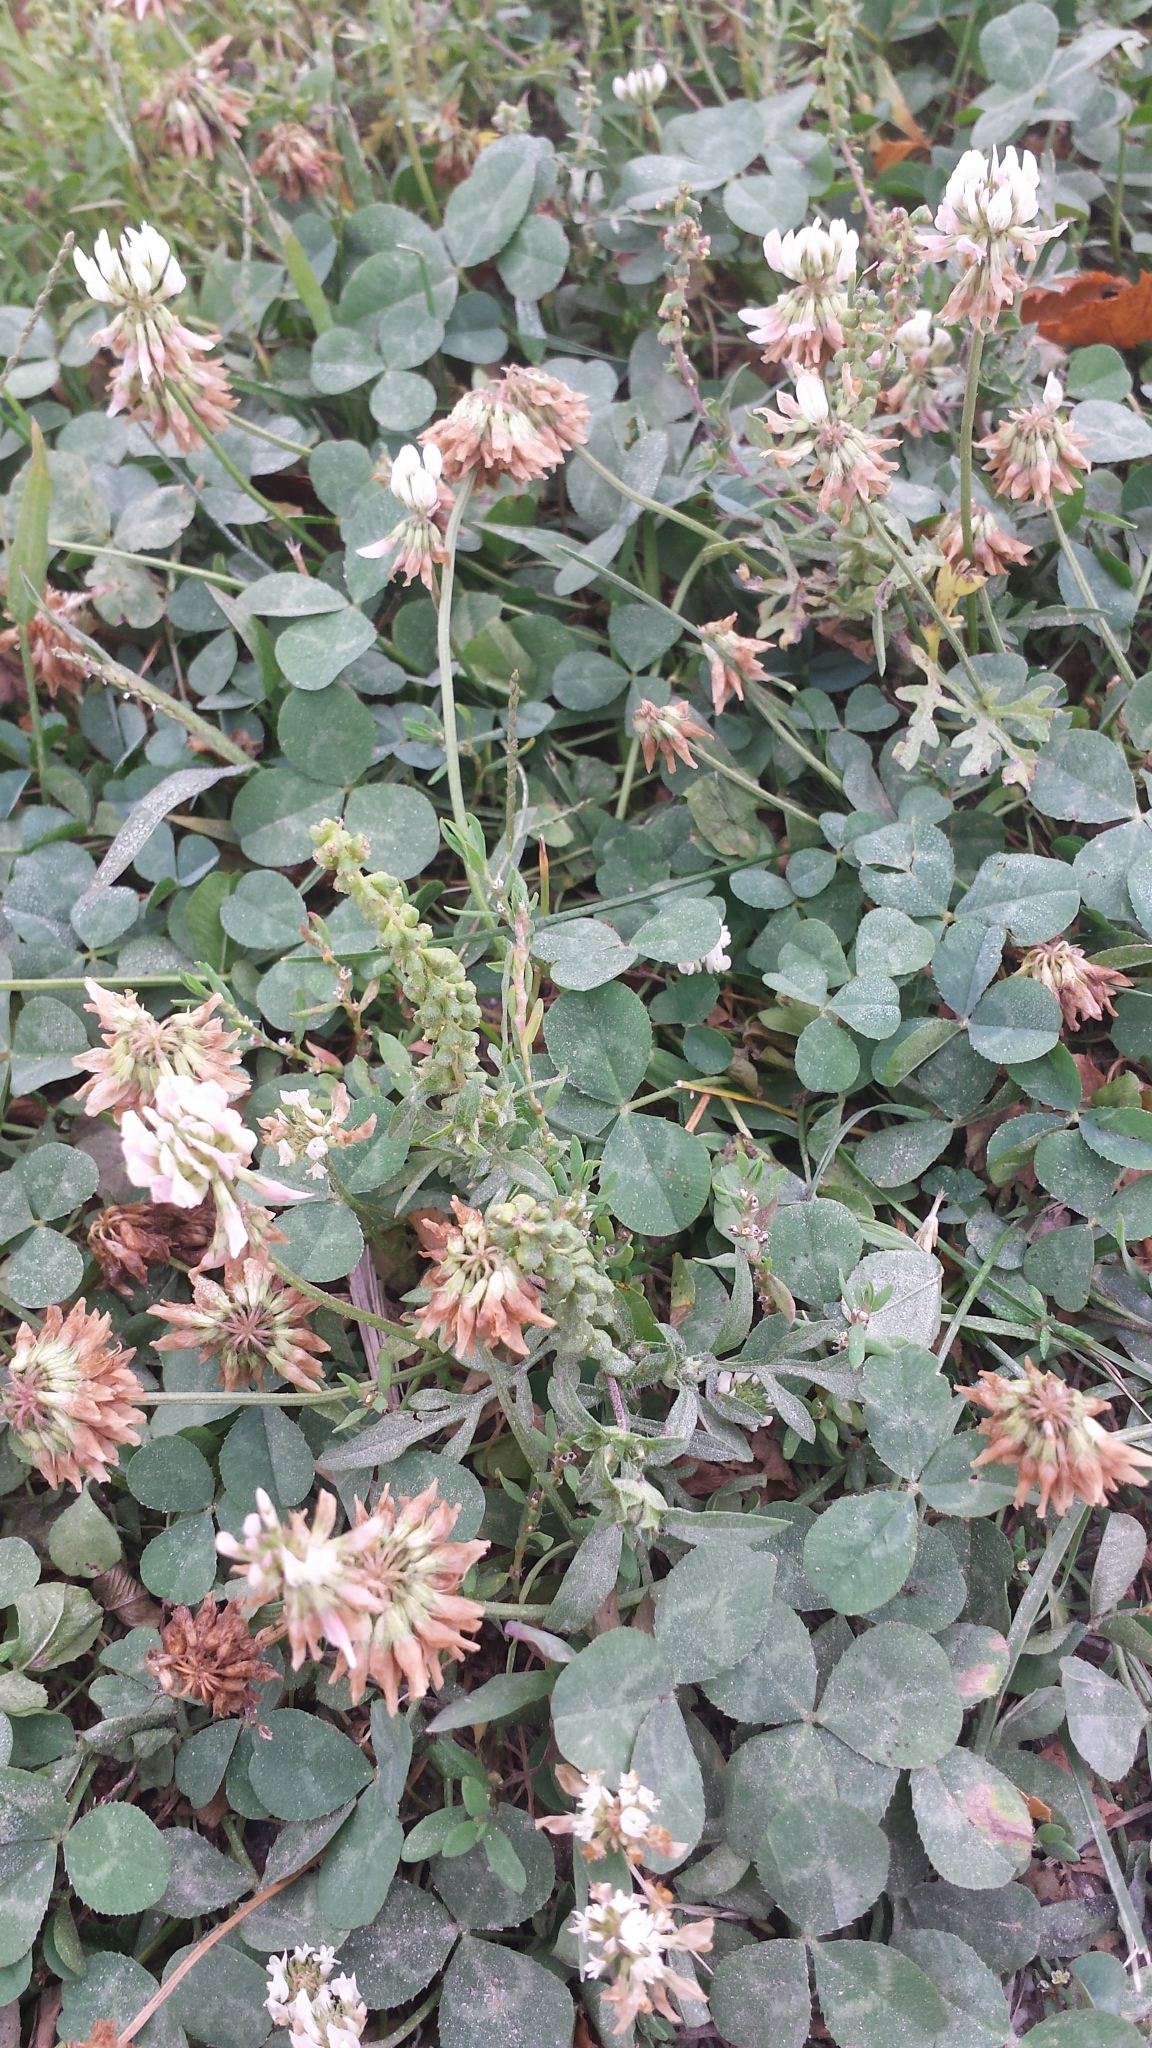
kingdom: Plantae
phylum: Tracheophyta
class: Magnoliopsida
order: Fabales
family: Fabaceae
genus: Trifolium
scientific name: Trifolium repens
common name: White clover
